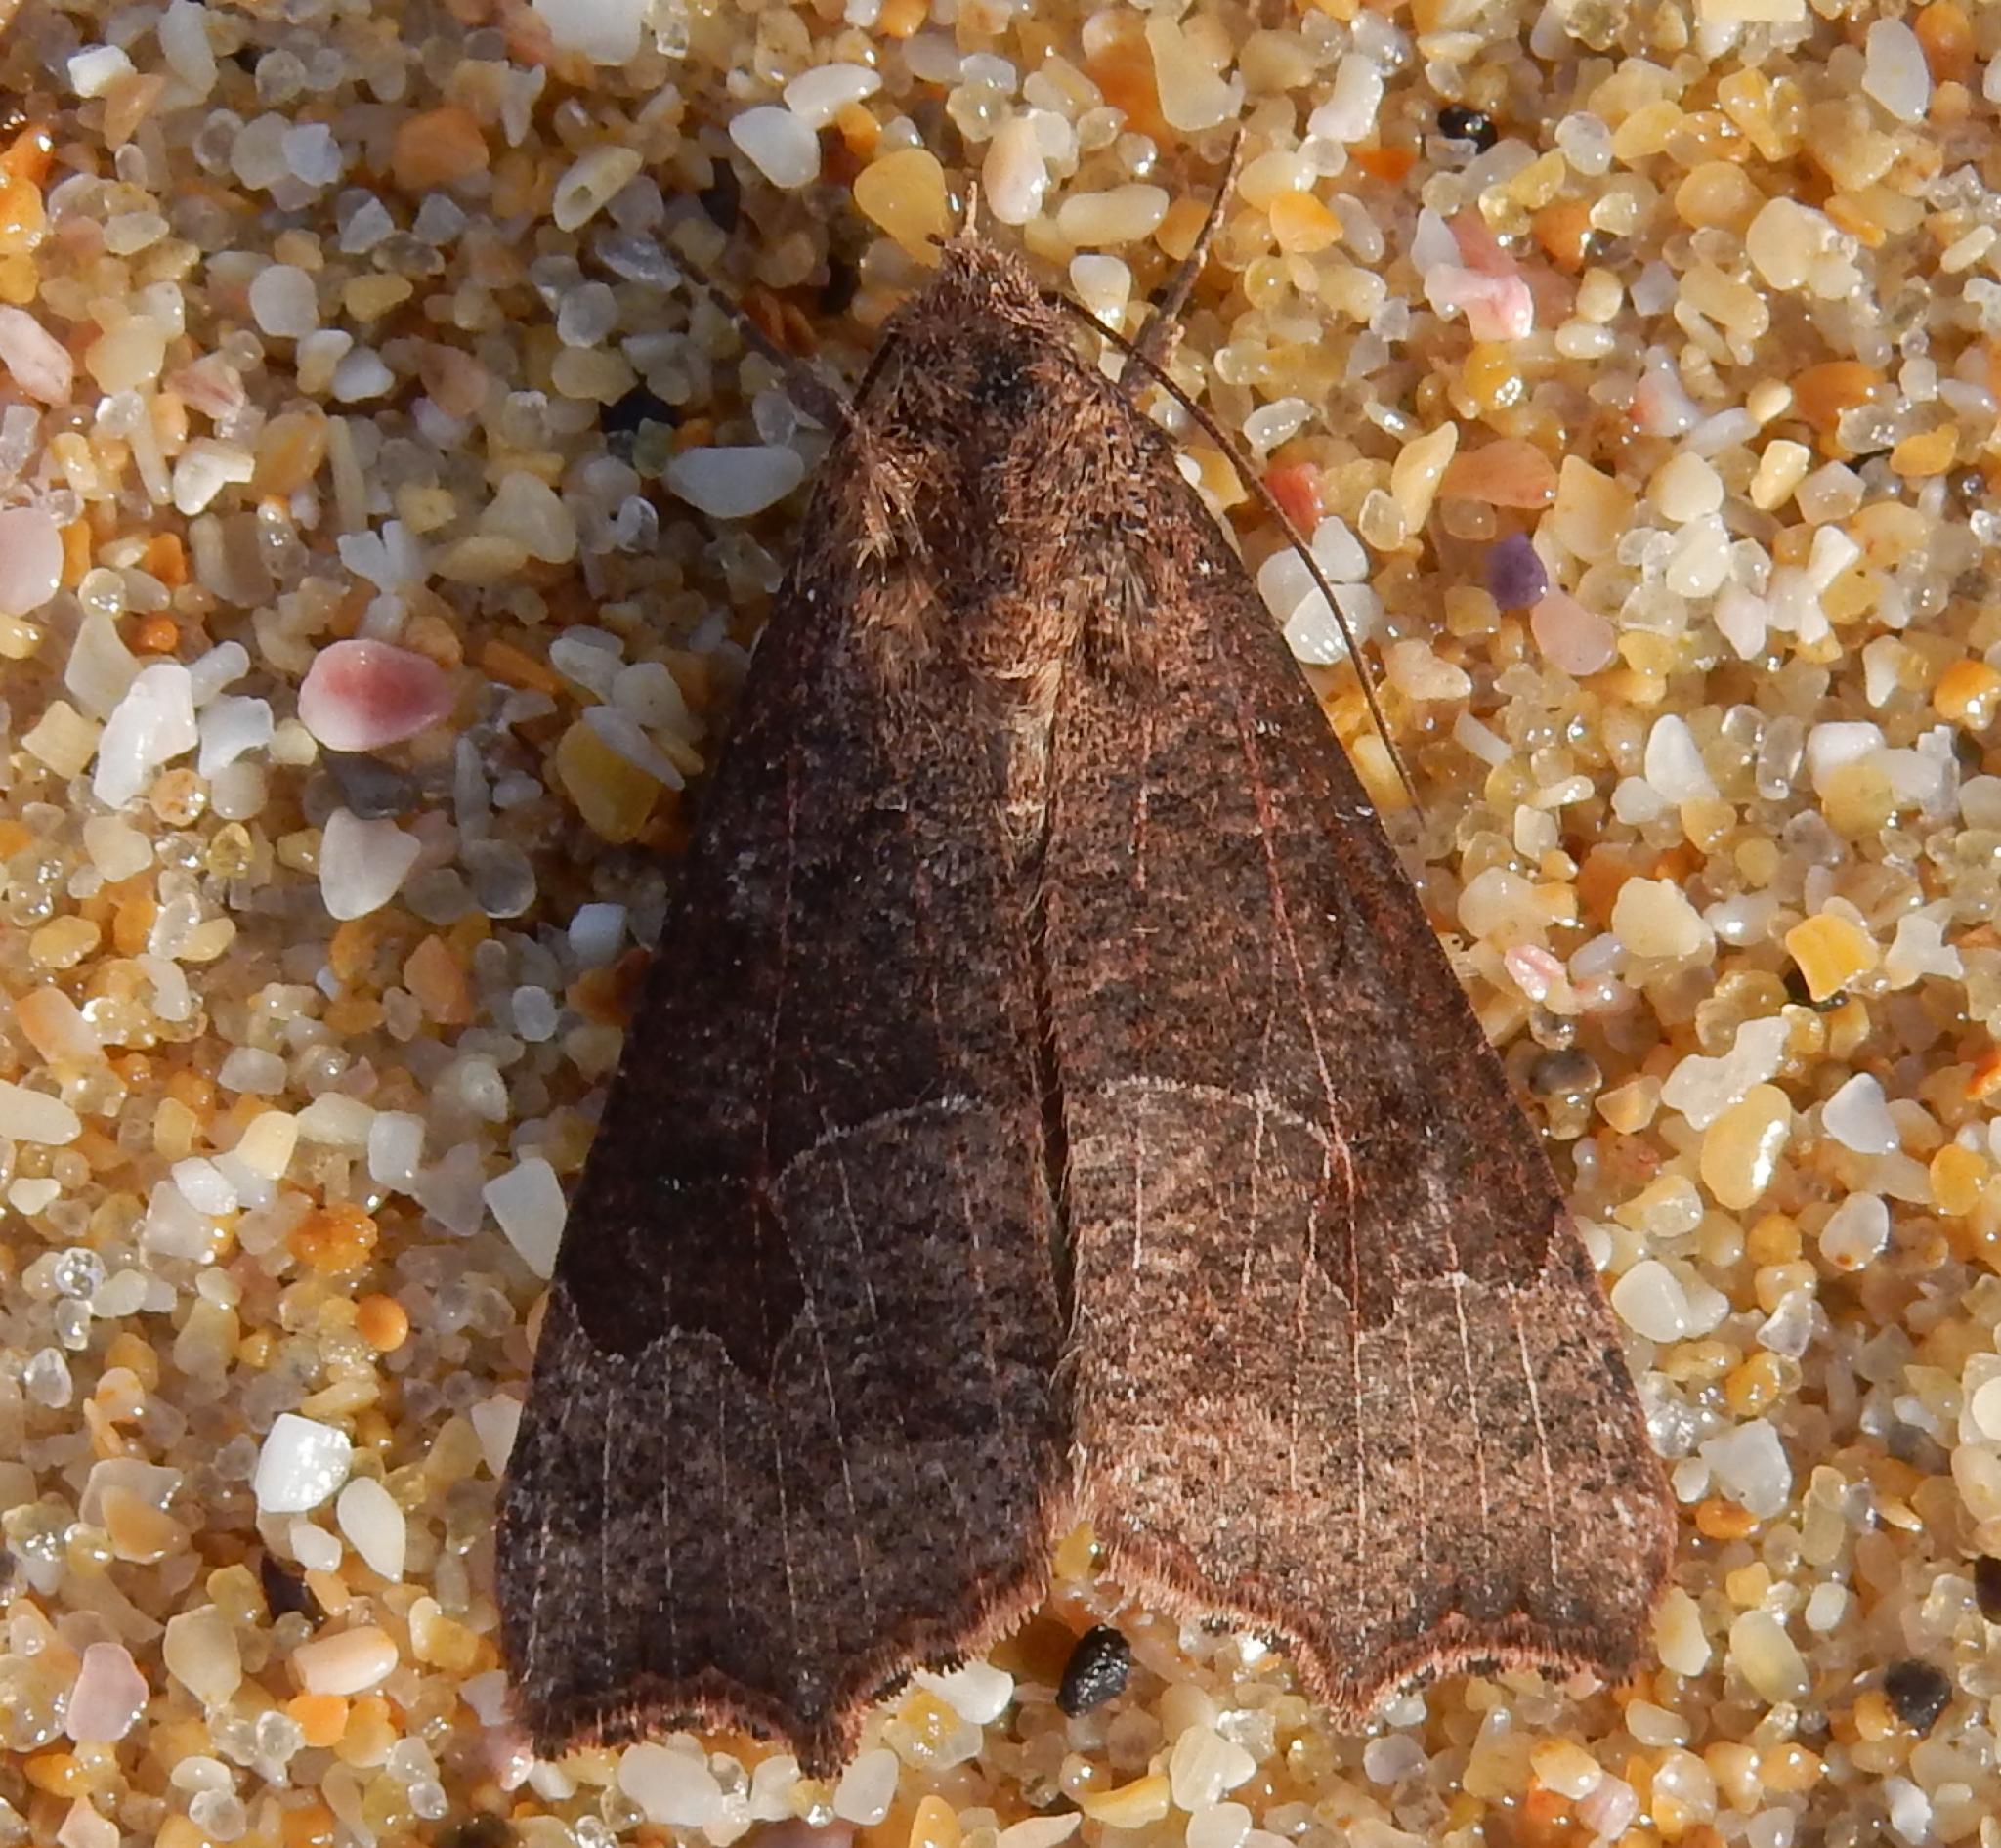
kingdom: Animalia
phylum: Arthropoda
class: Insecta
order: Lepidoptera
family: Erebidae
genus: Anomis
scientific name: Anomis sabulifera
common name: Angled gem
